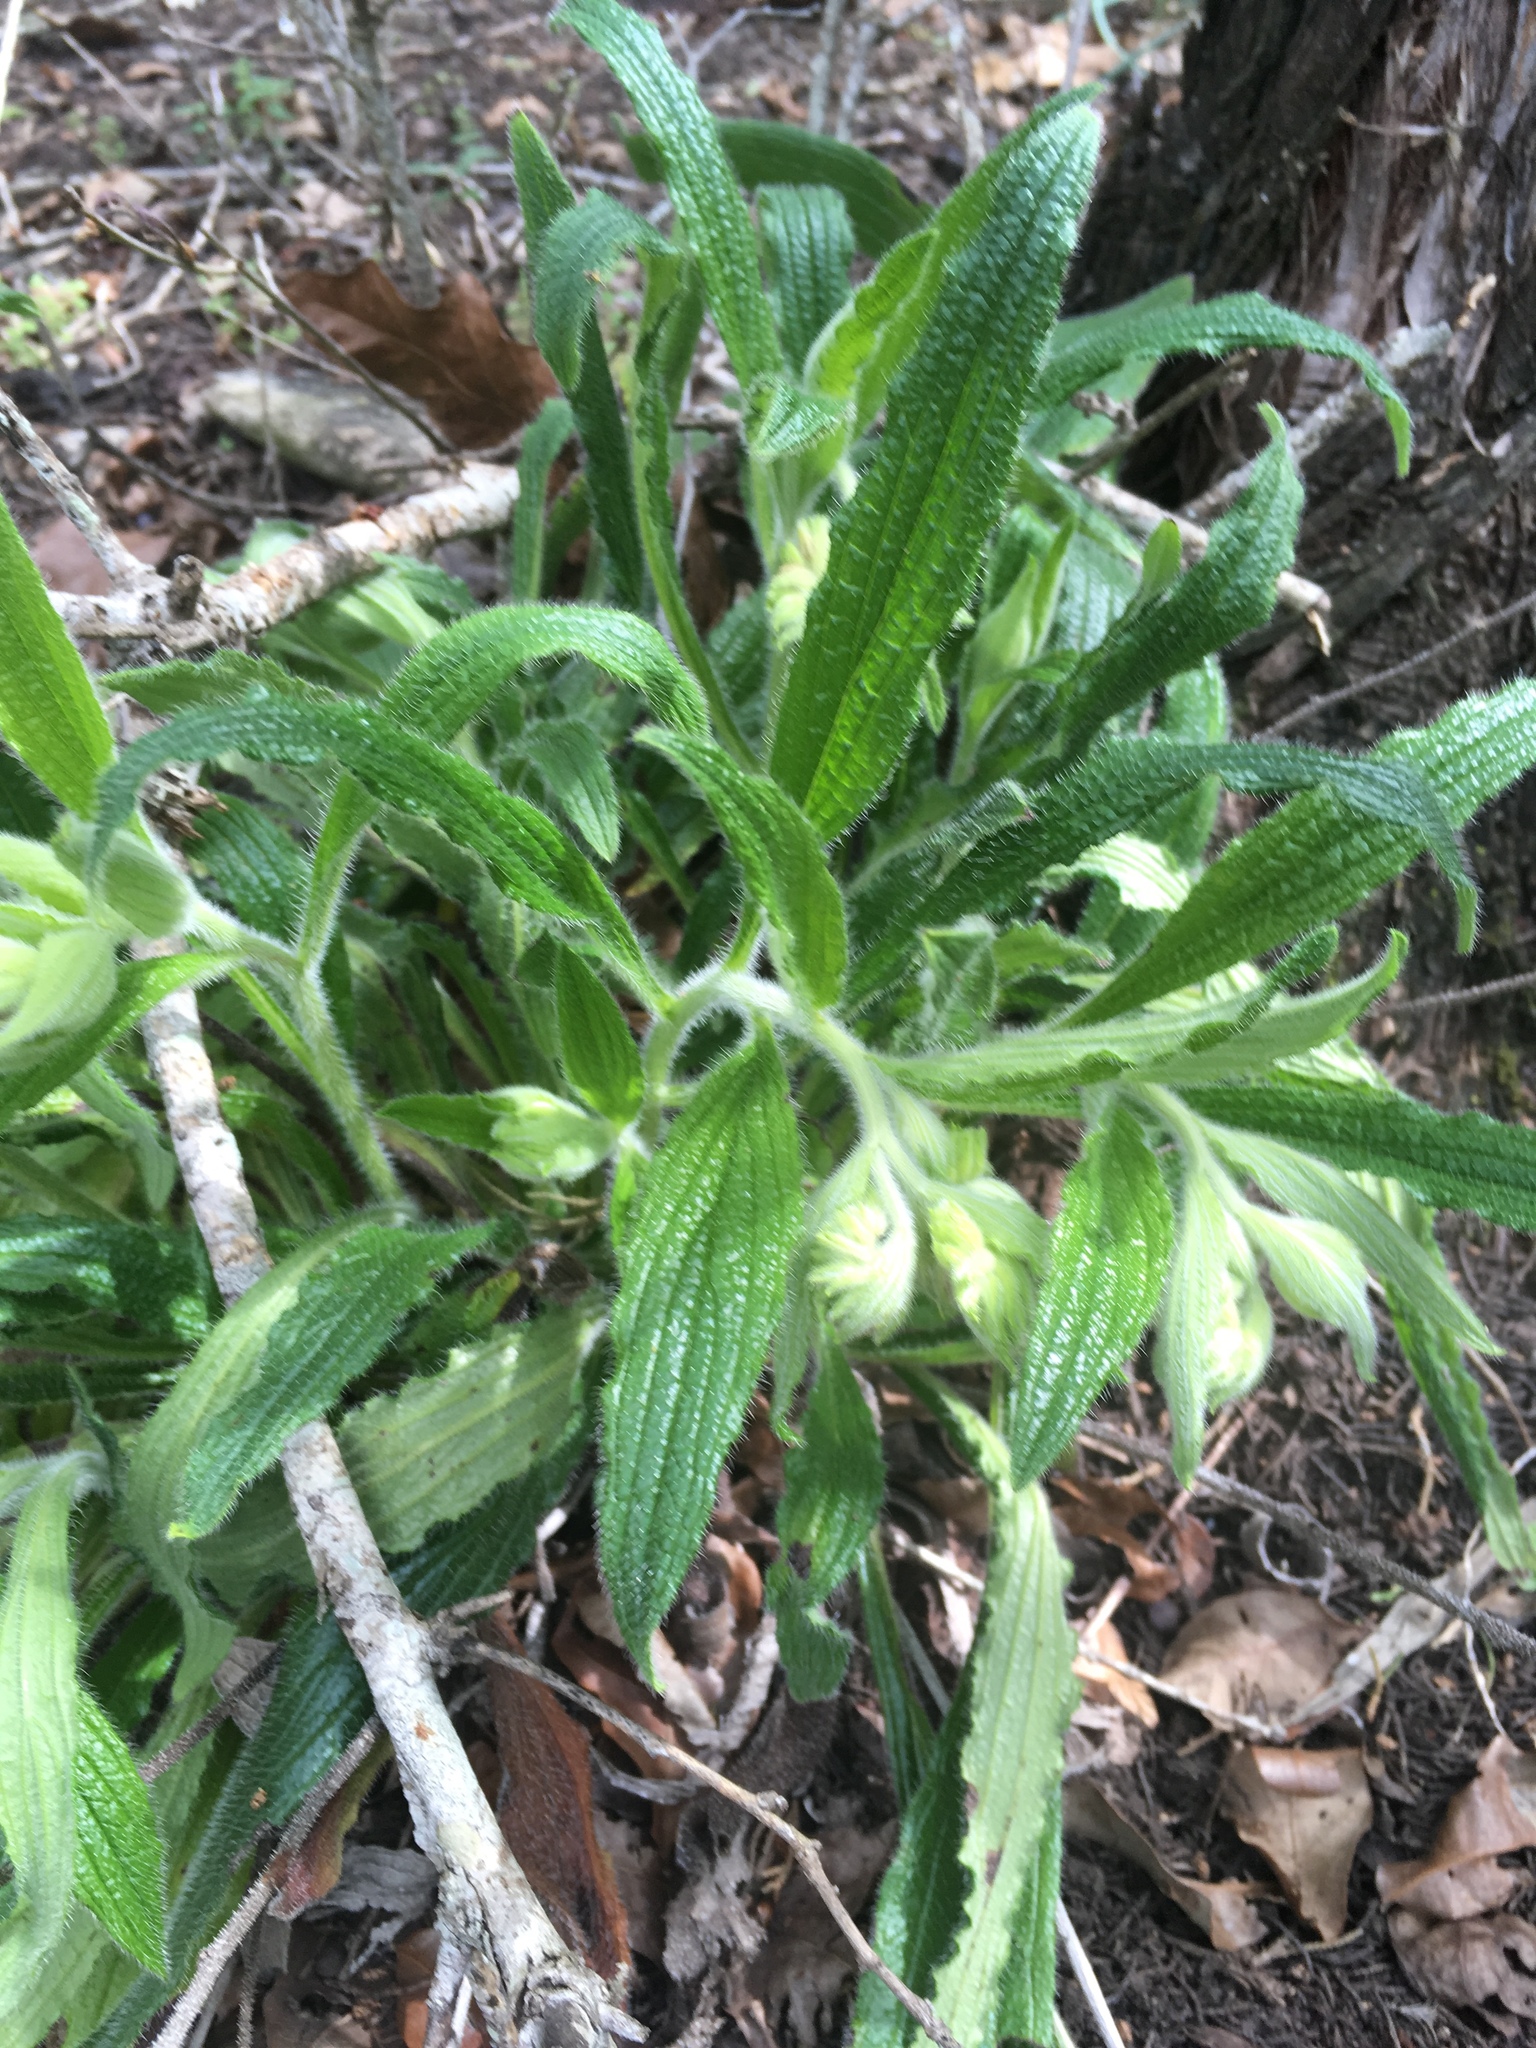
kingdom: Plantae
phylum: Tracheophyta
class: Magnoliopsida
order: Boraginales
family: Boraginaceae
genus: Lithospermum
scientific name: Lithospermum caroliniense
